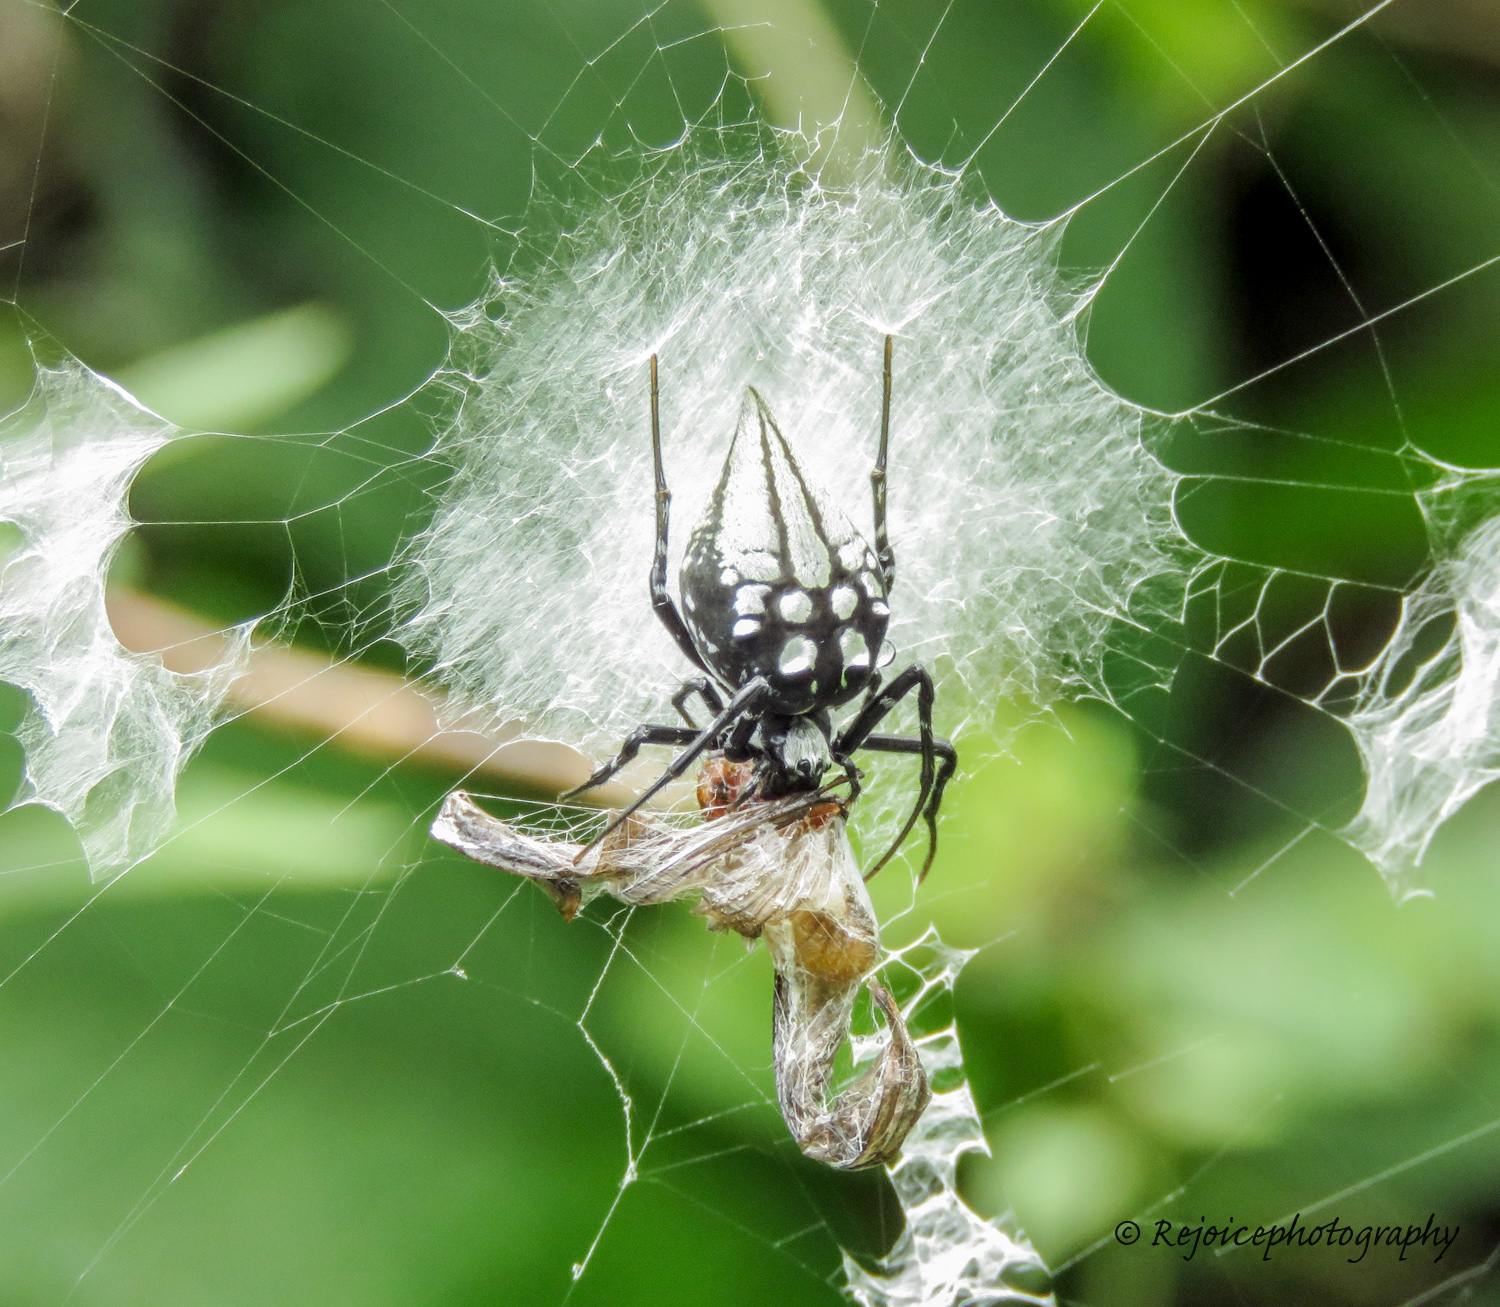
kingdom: Animalia
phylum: Arthropoda
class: Arachnida
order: Araneae
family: Araneidae
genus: Neogea
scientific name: Neogea nocticolor
